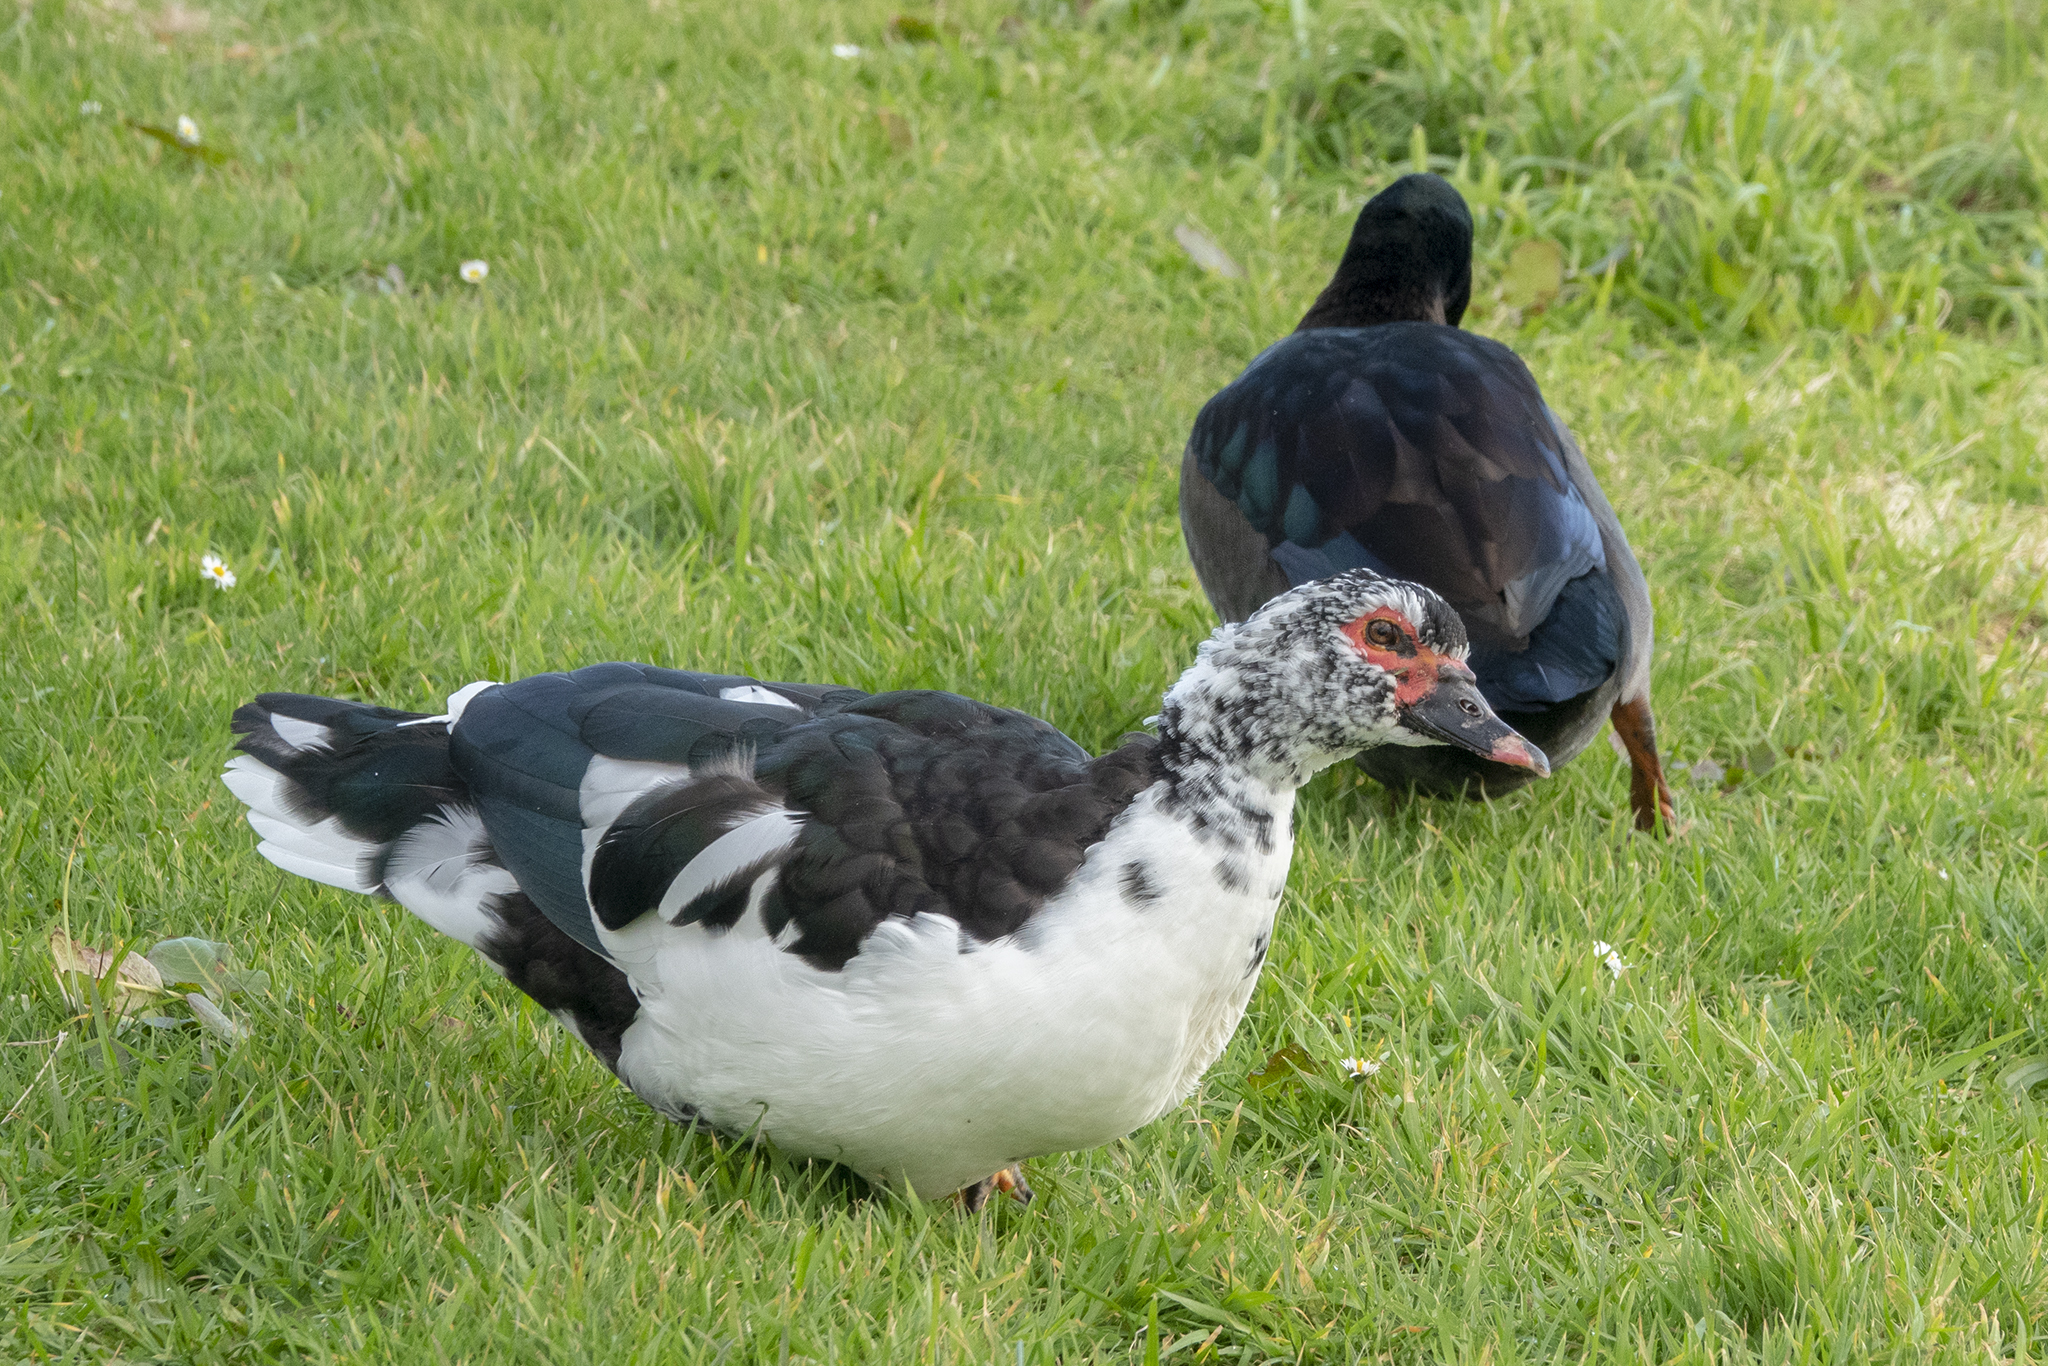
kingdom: Animalia
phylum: Chordata
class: Aves
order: Anseriformes
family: Anatidae
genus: Cairina
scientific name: Cairina moschata
